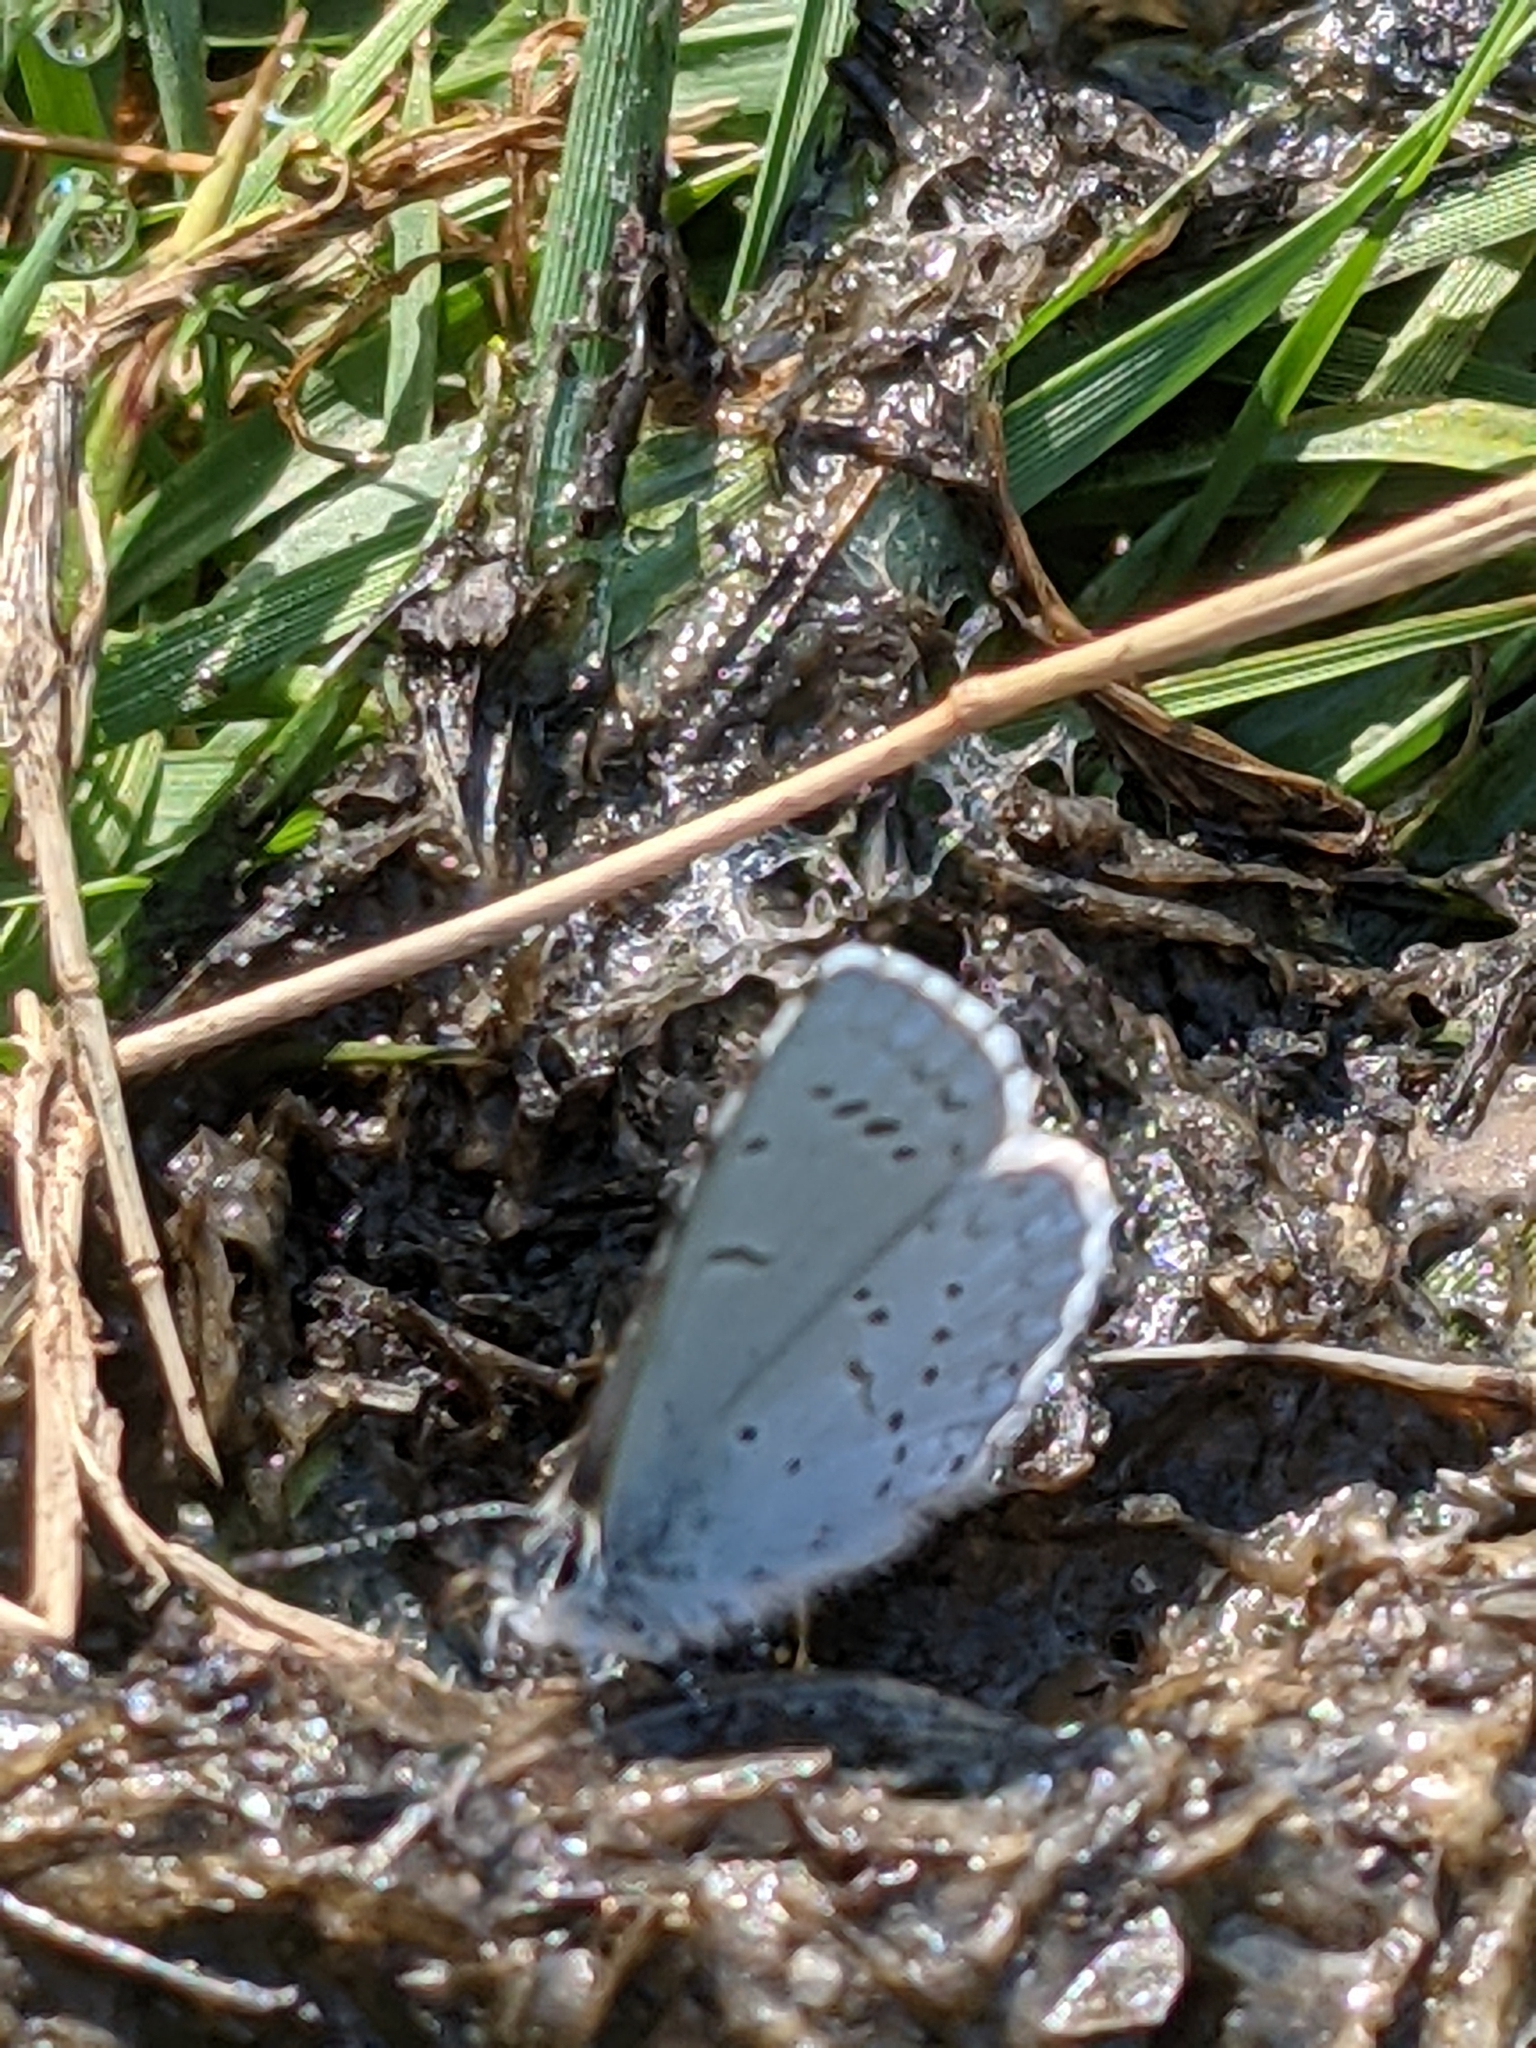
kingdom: Animalia
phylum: Arthropoda
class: Insecta
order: Lepidoptera
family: Lycaenidae
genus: Celastrina
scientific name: Celastrina ladon
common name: Spring azure
